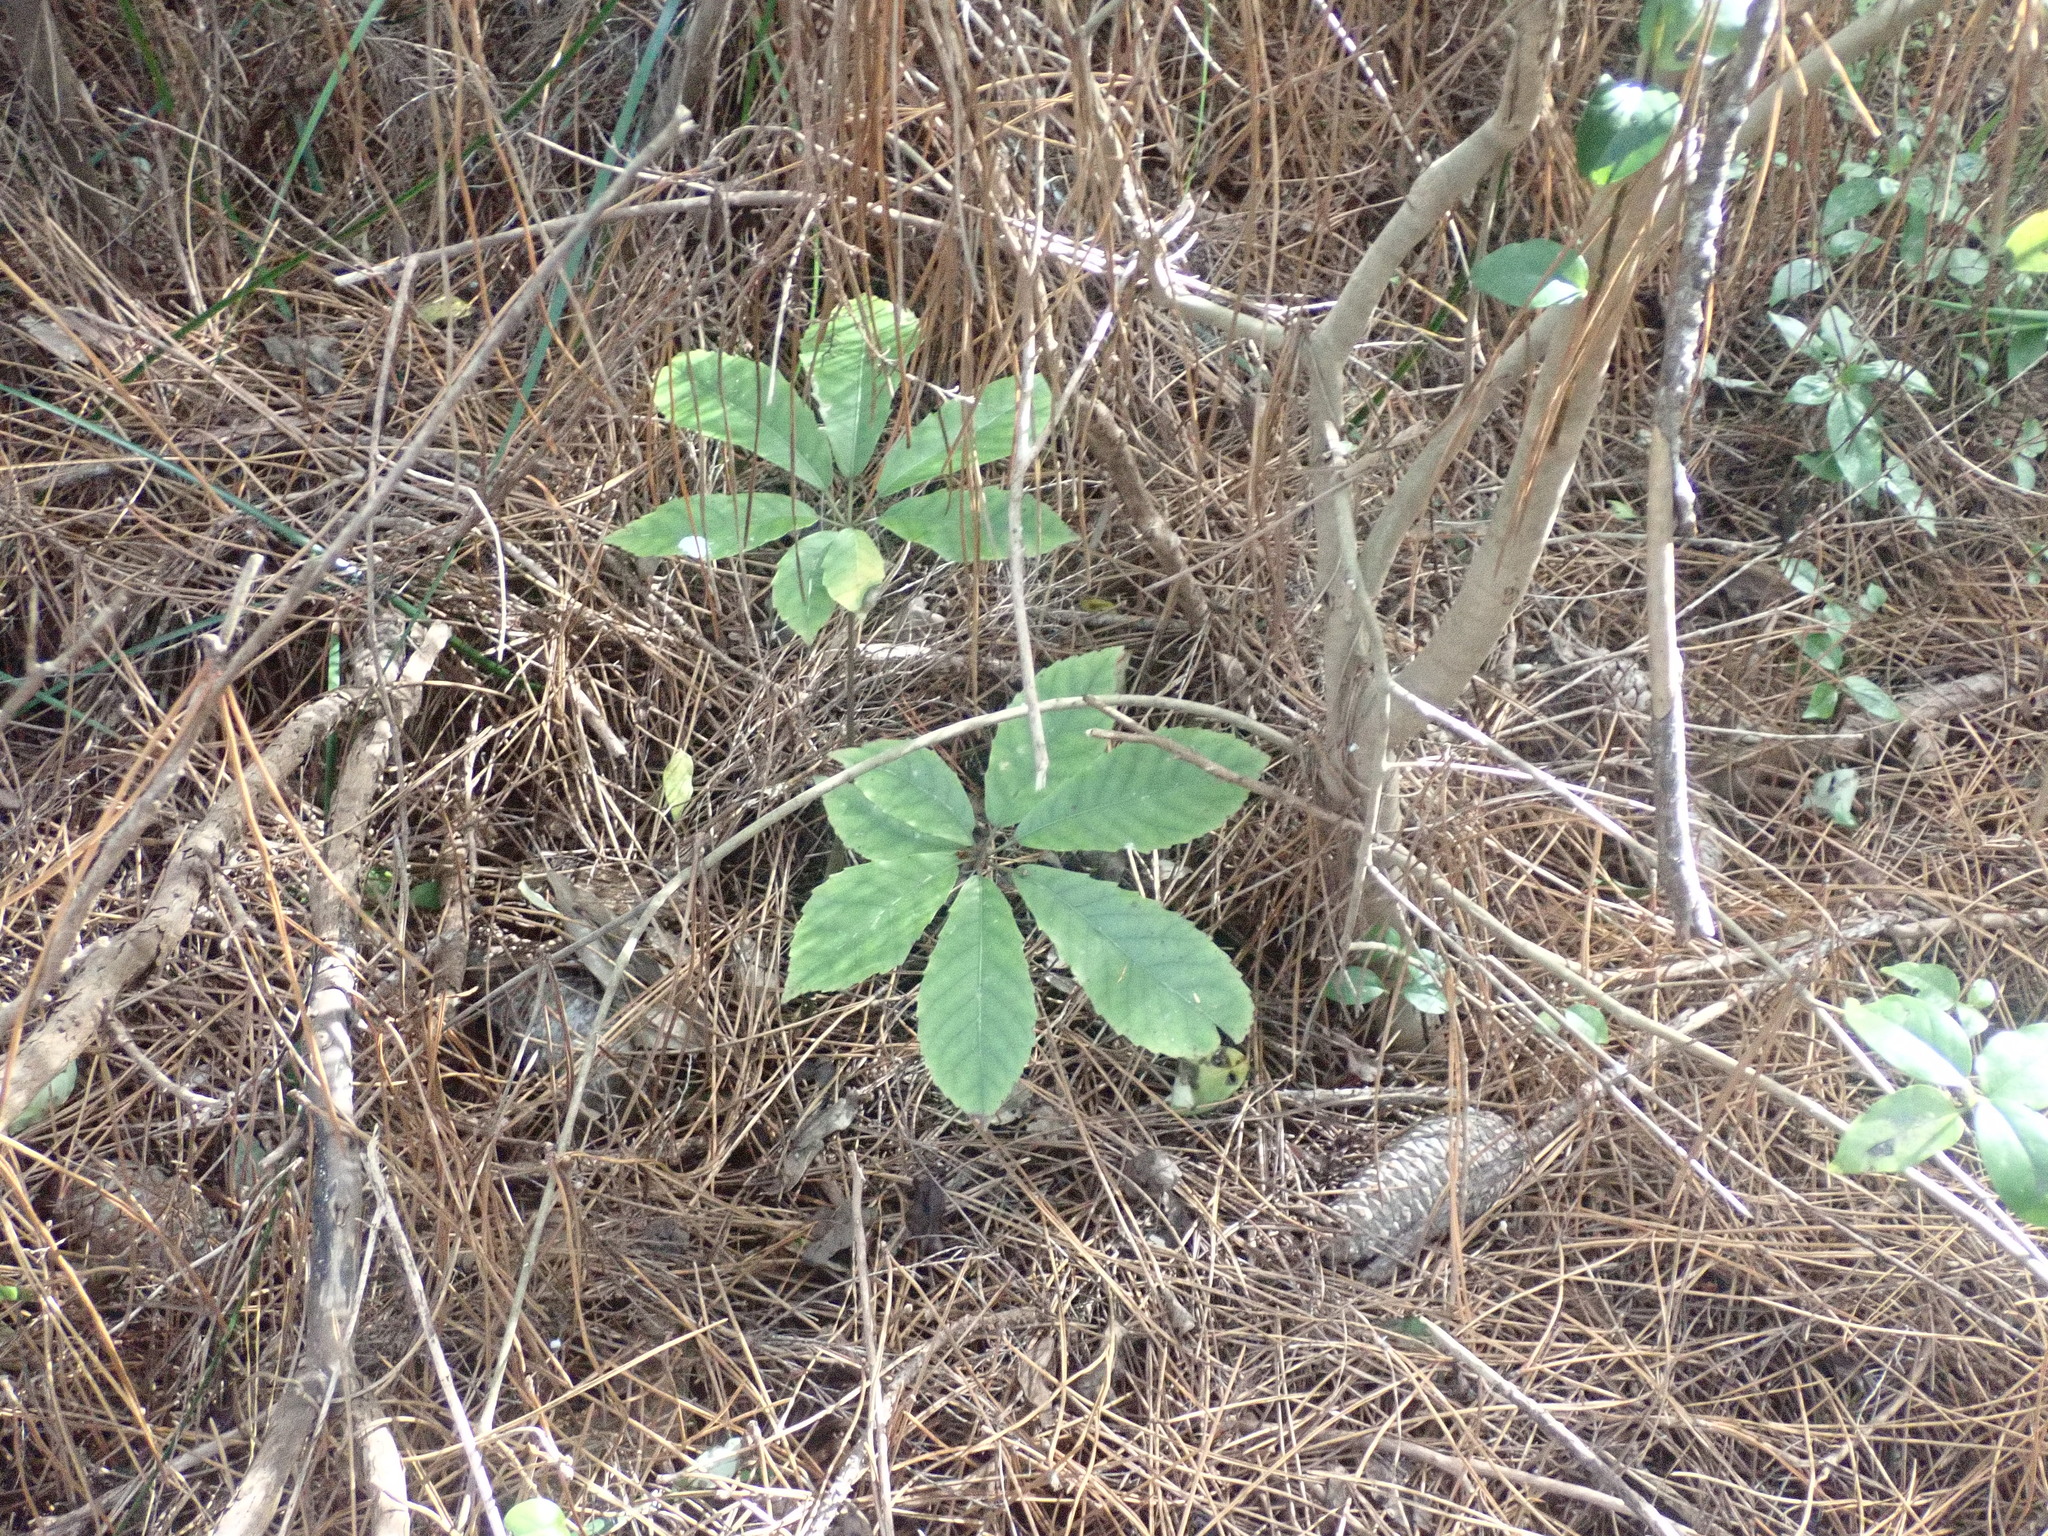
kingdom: Plantae
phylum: Tracheophyta
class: Magnoliopsida
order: Apiales
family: Araliaceae
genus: Neopanax
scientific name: Neopanax arboreus
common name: Five-fingers
